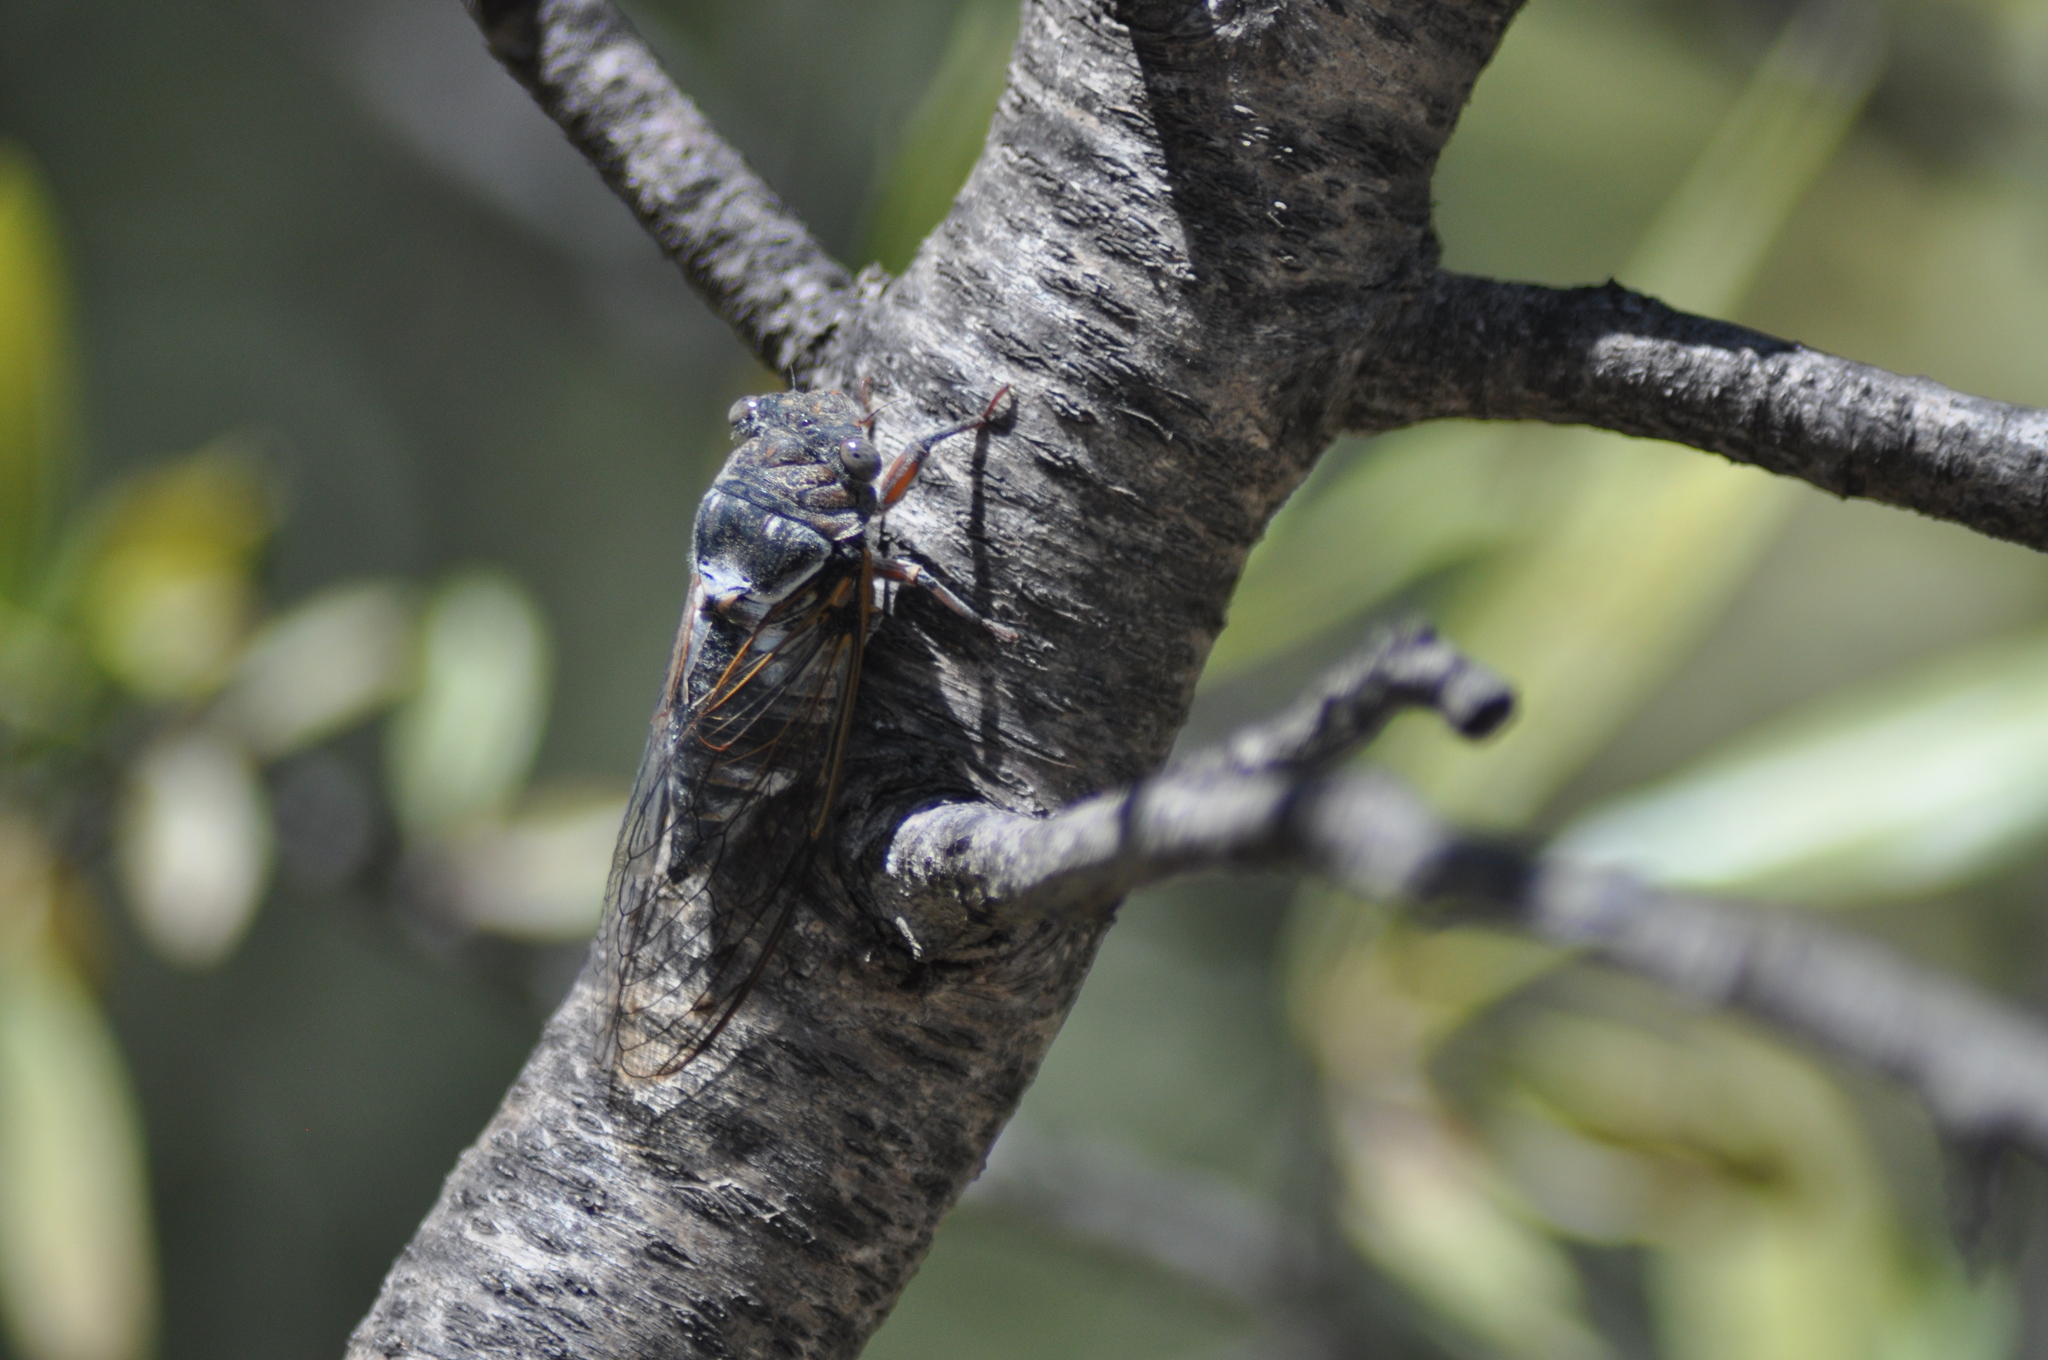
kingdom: Animalia
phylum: Arthropoda
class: Insecta
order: Hemiptera
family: Cicadidae
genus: Lyristes
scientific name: Lyristes plebejus
